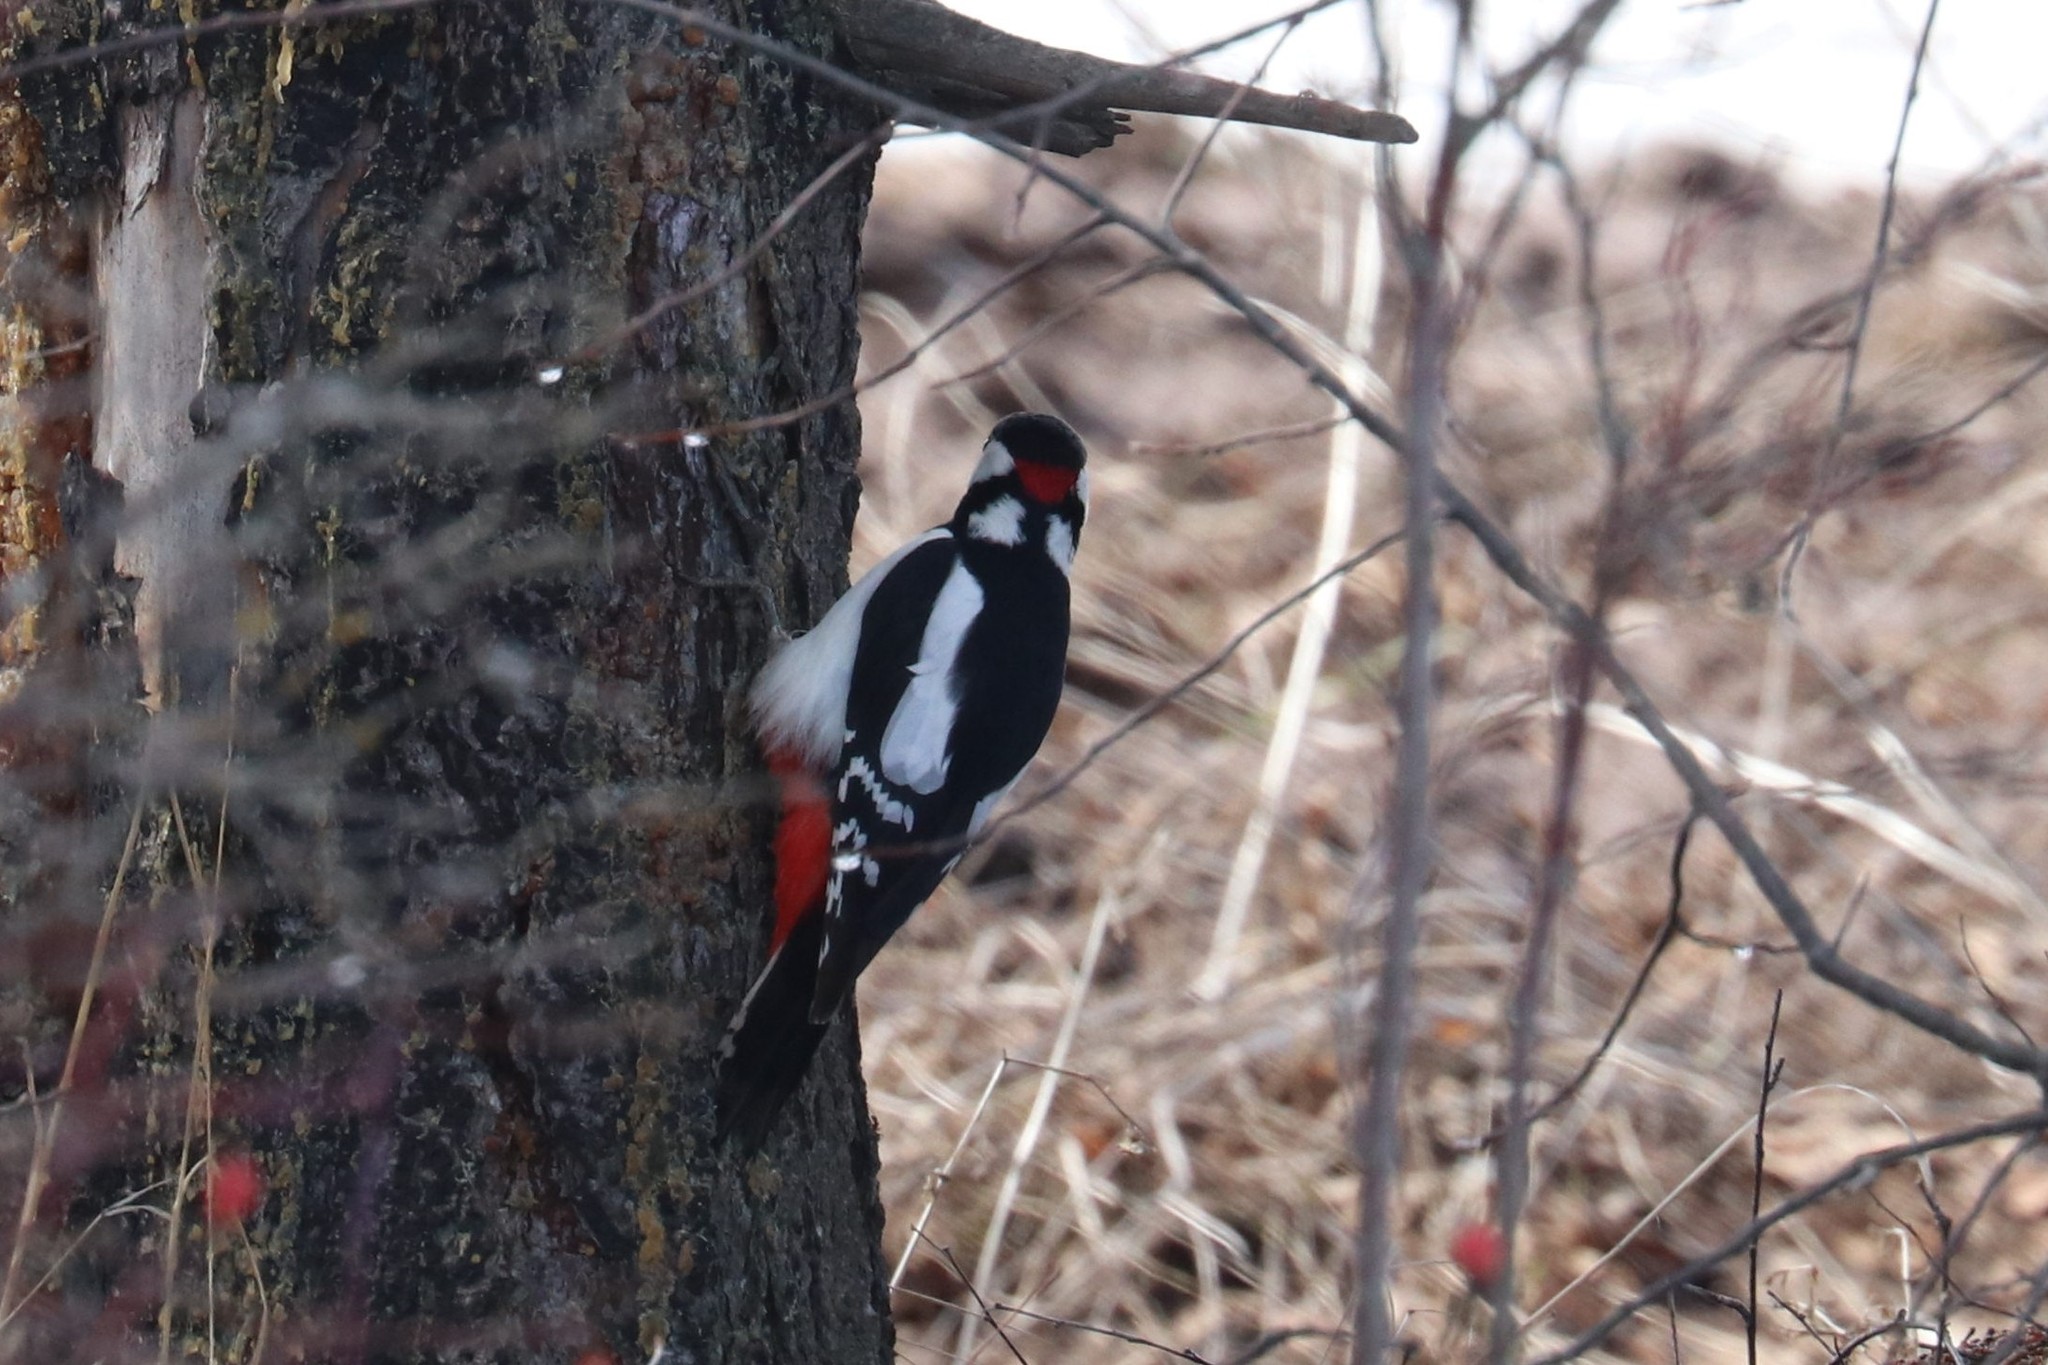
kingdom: Animalia
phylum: Chordata
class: Aves
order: Piciformes
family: Picidae
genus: Dendrocopos
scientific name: Dendrocopos major
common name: Great spotted woodpecker
